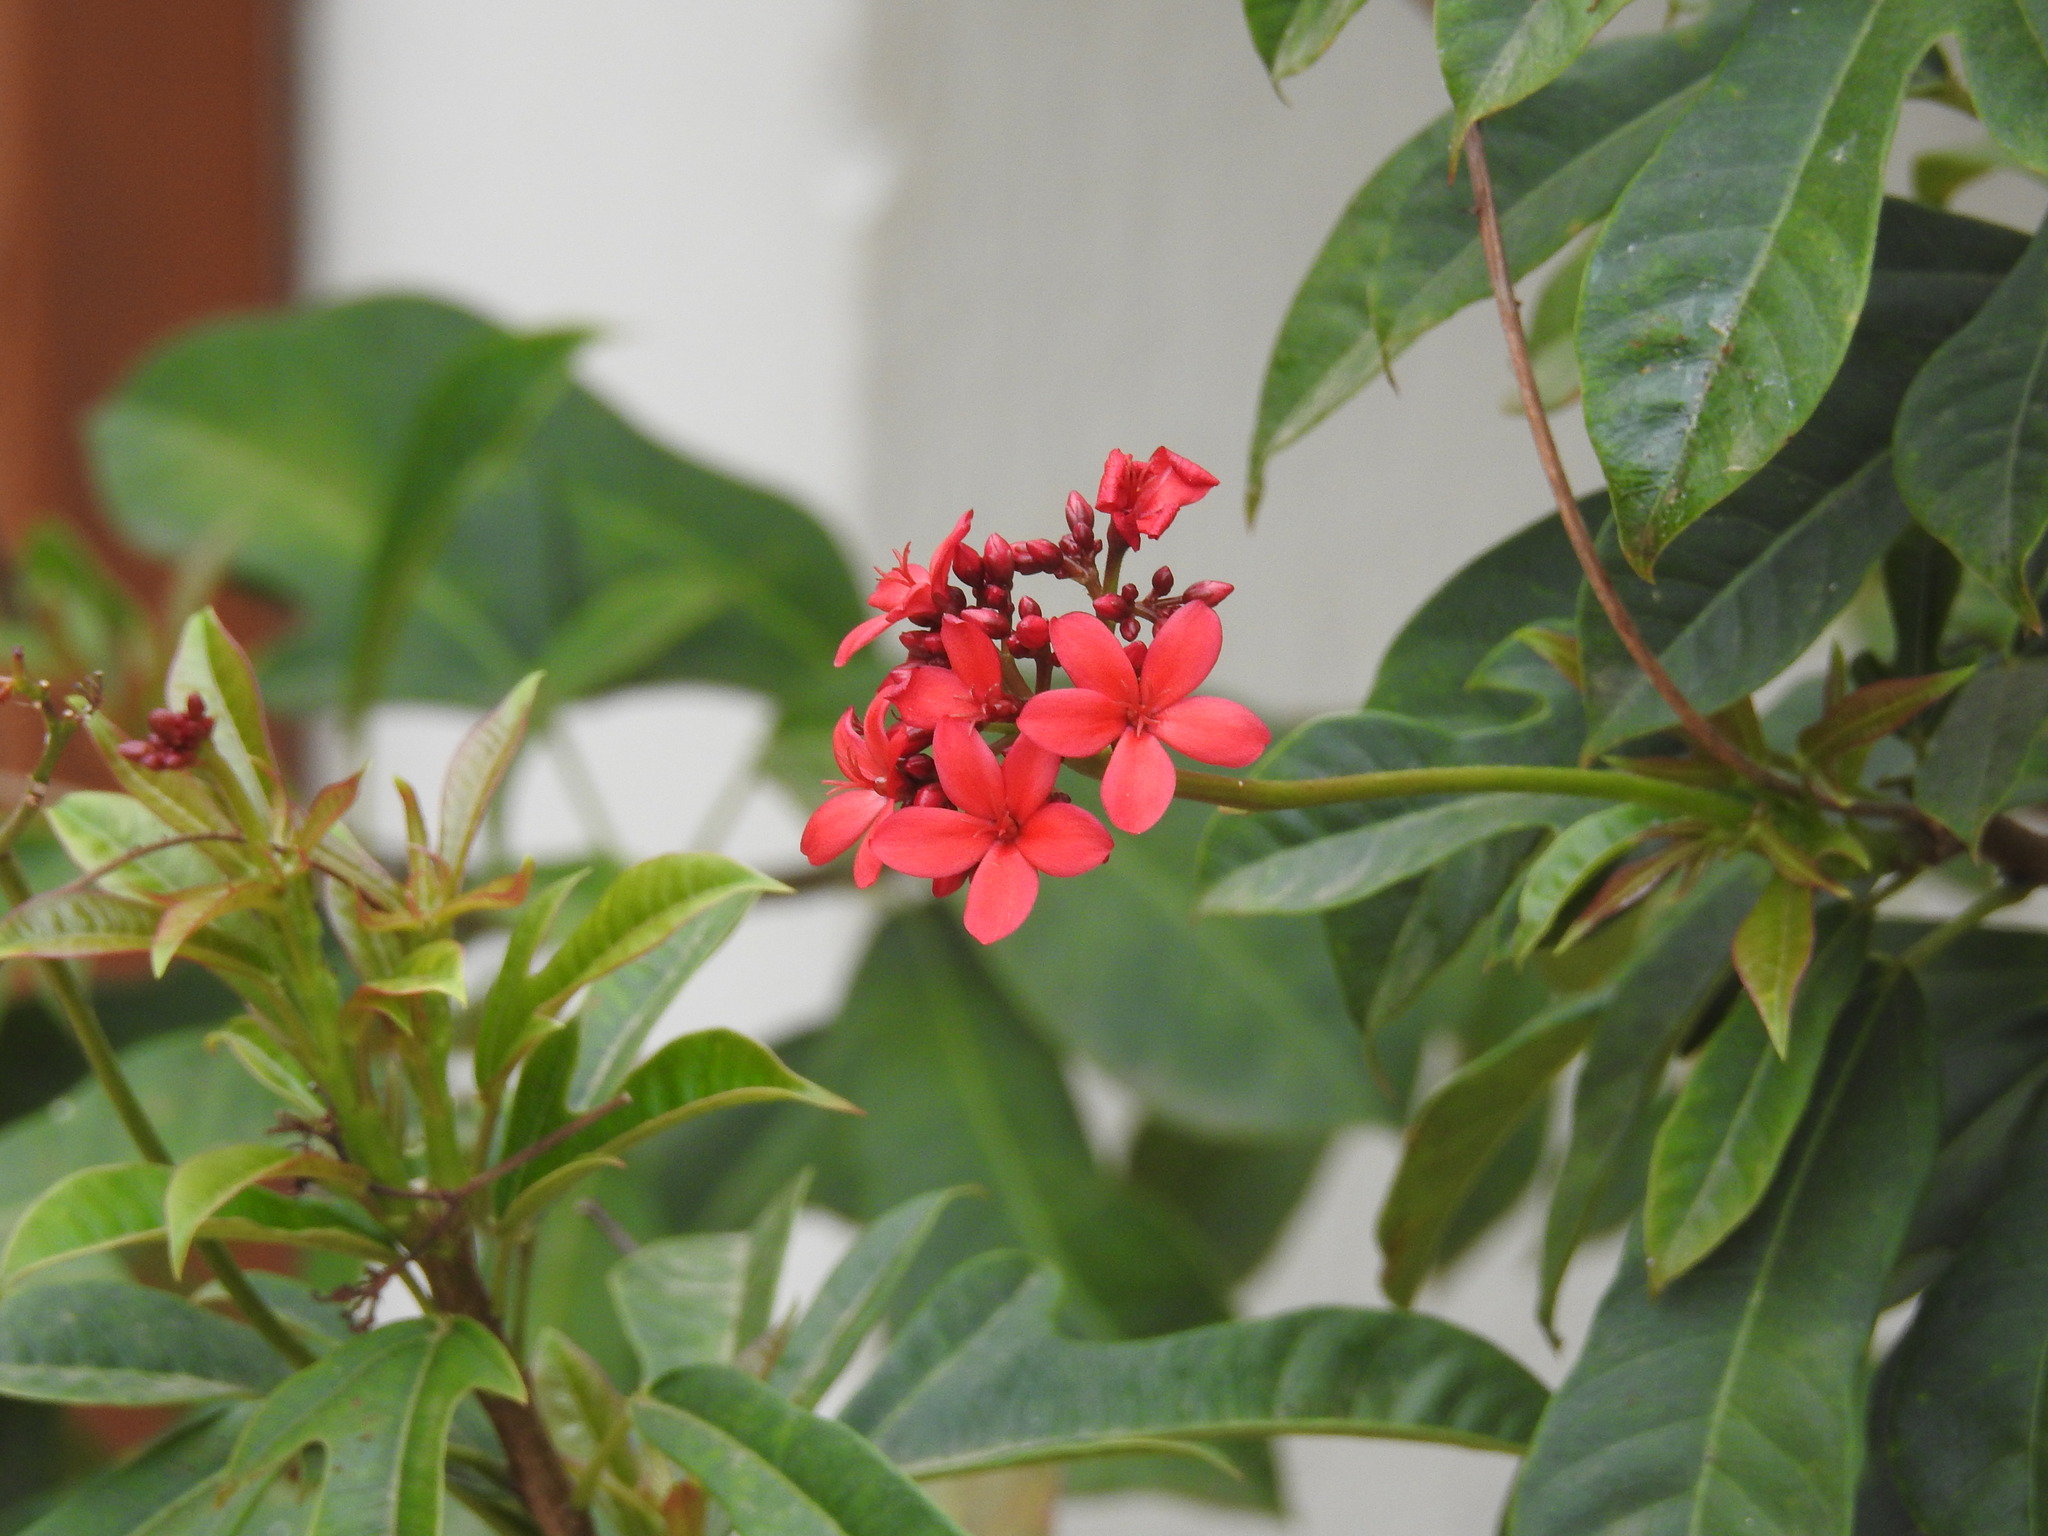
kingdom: Plantae
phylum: Tracheophyta
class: Magnoliopsida
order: Malpighiales
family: Euphorbiaceae
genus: Jatropha
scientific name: Jatropha integerrima
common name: Peregrina
